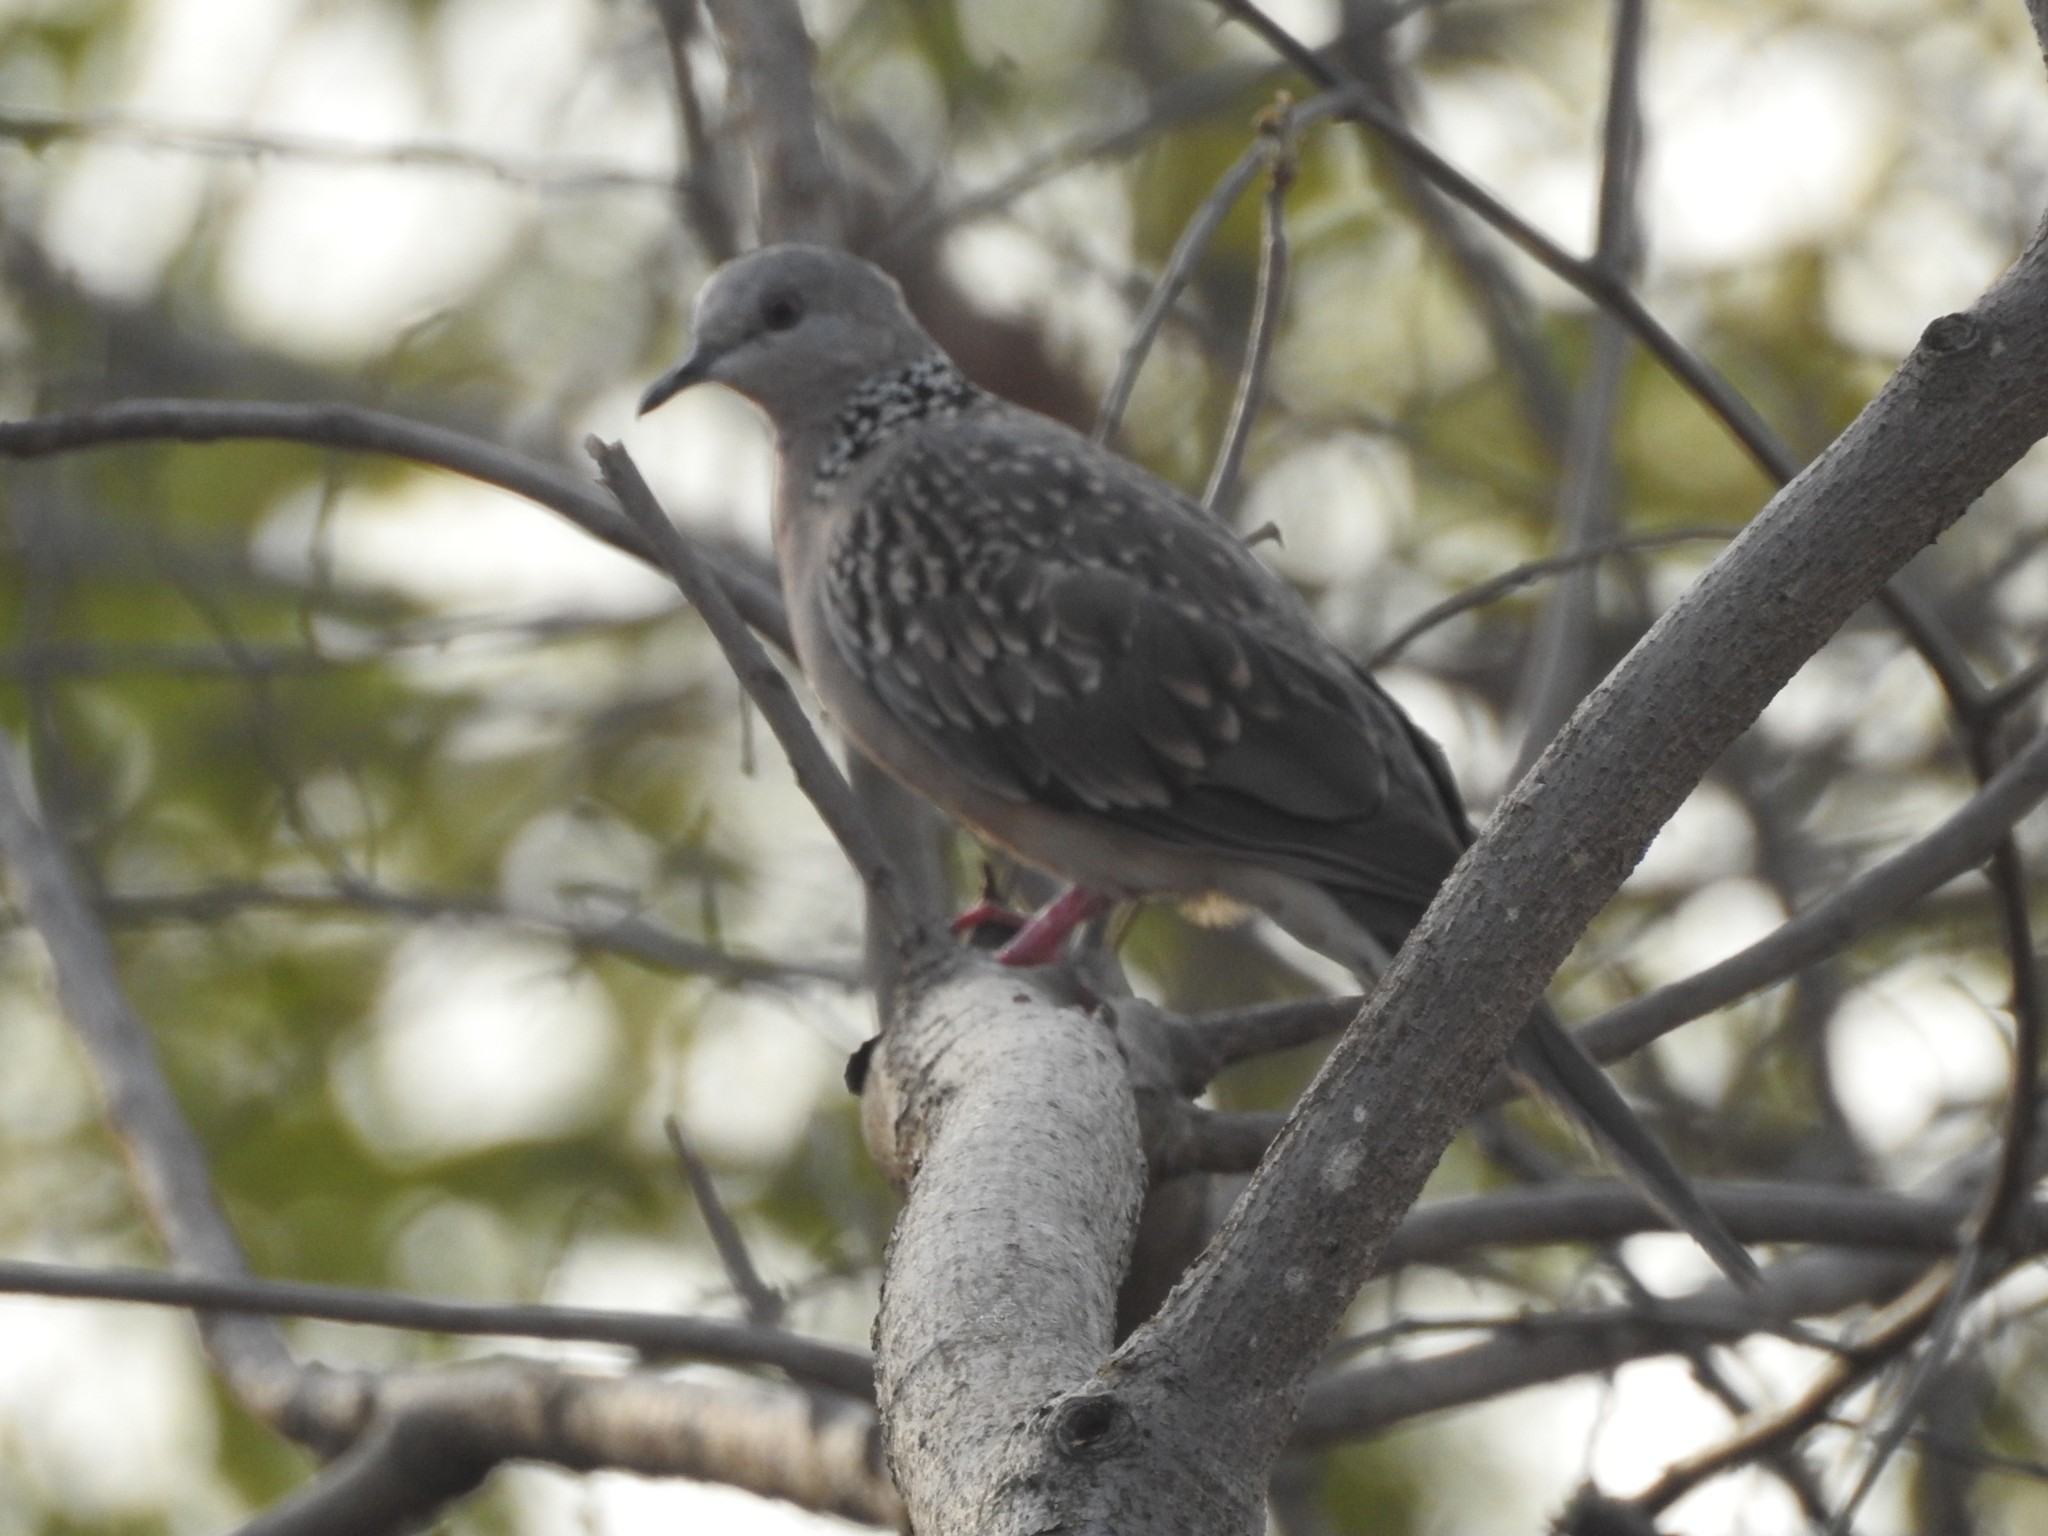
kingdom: Animalia
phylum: Chordata
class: Aves
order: Columbiformes
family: Columbidae
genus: Spilopelia
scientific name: Spilopelia chinensis
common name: Spotted dove
